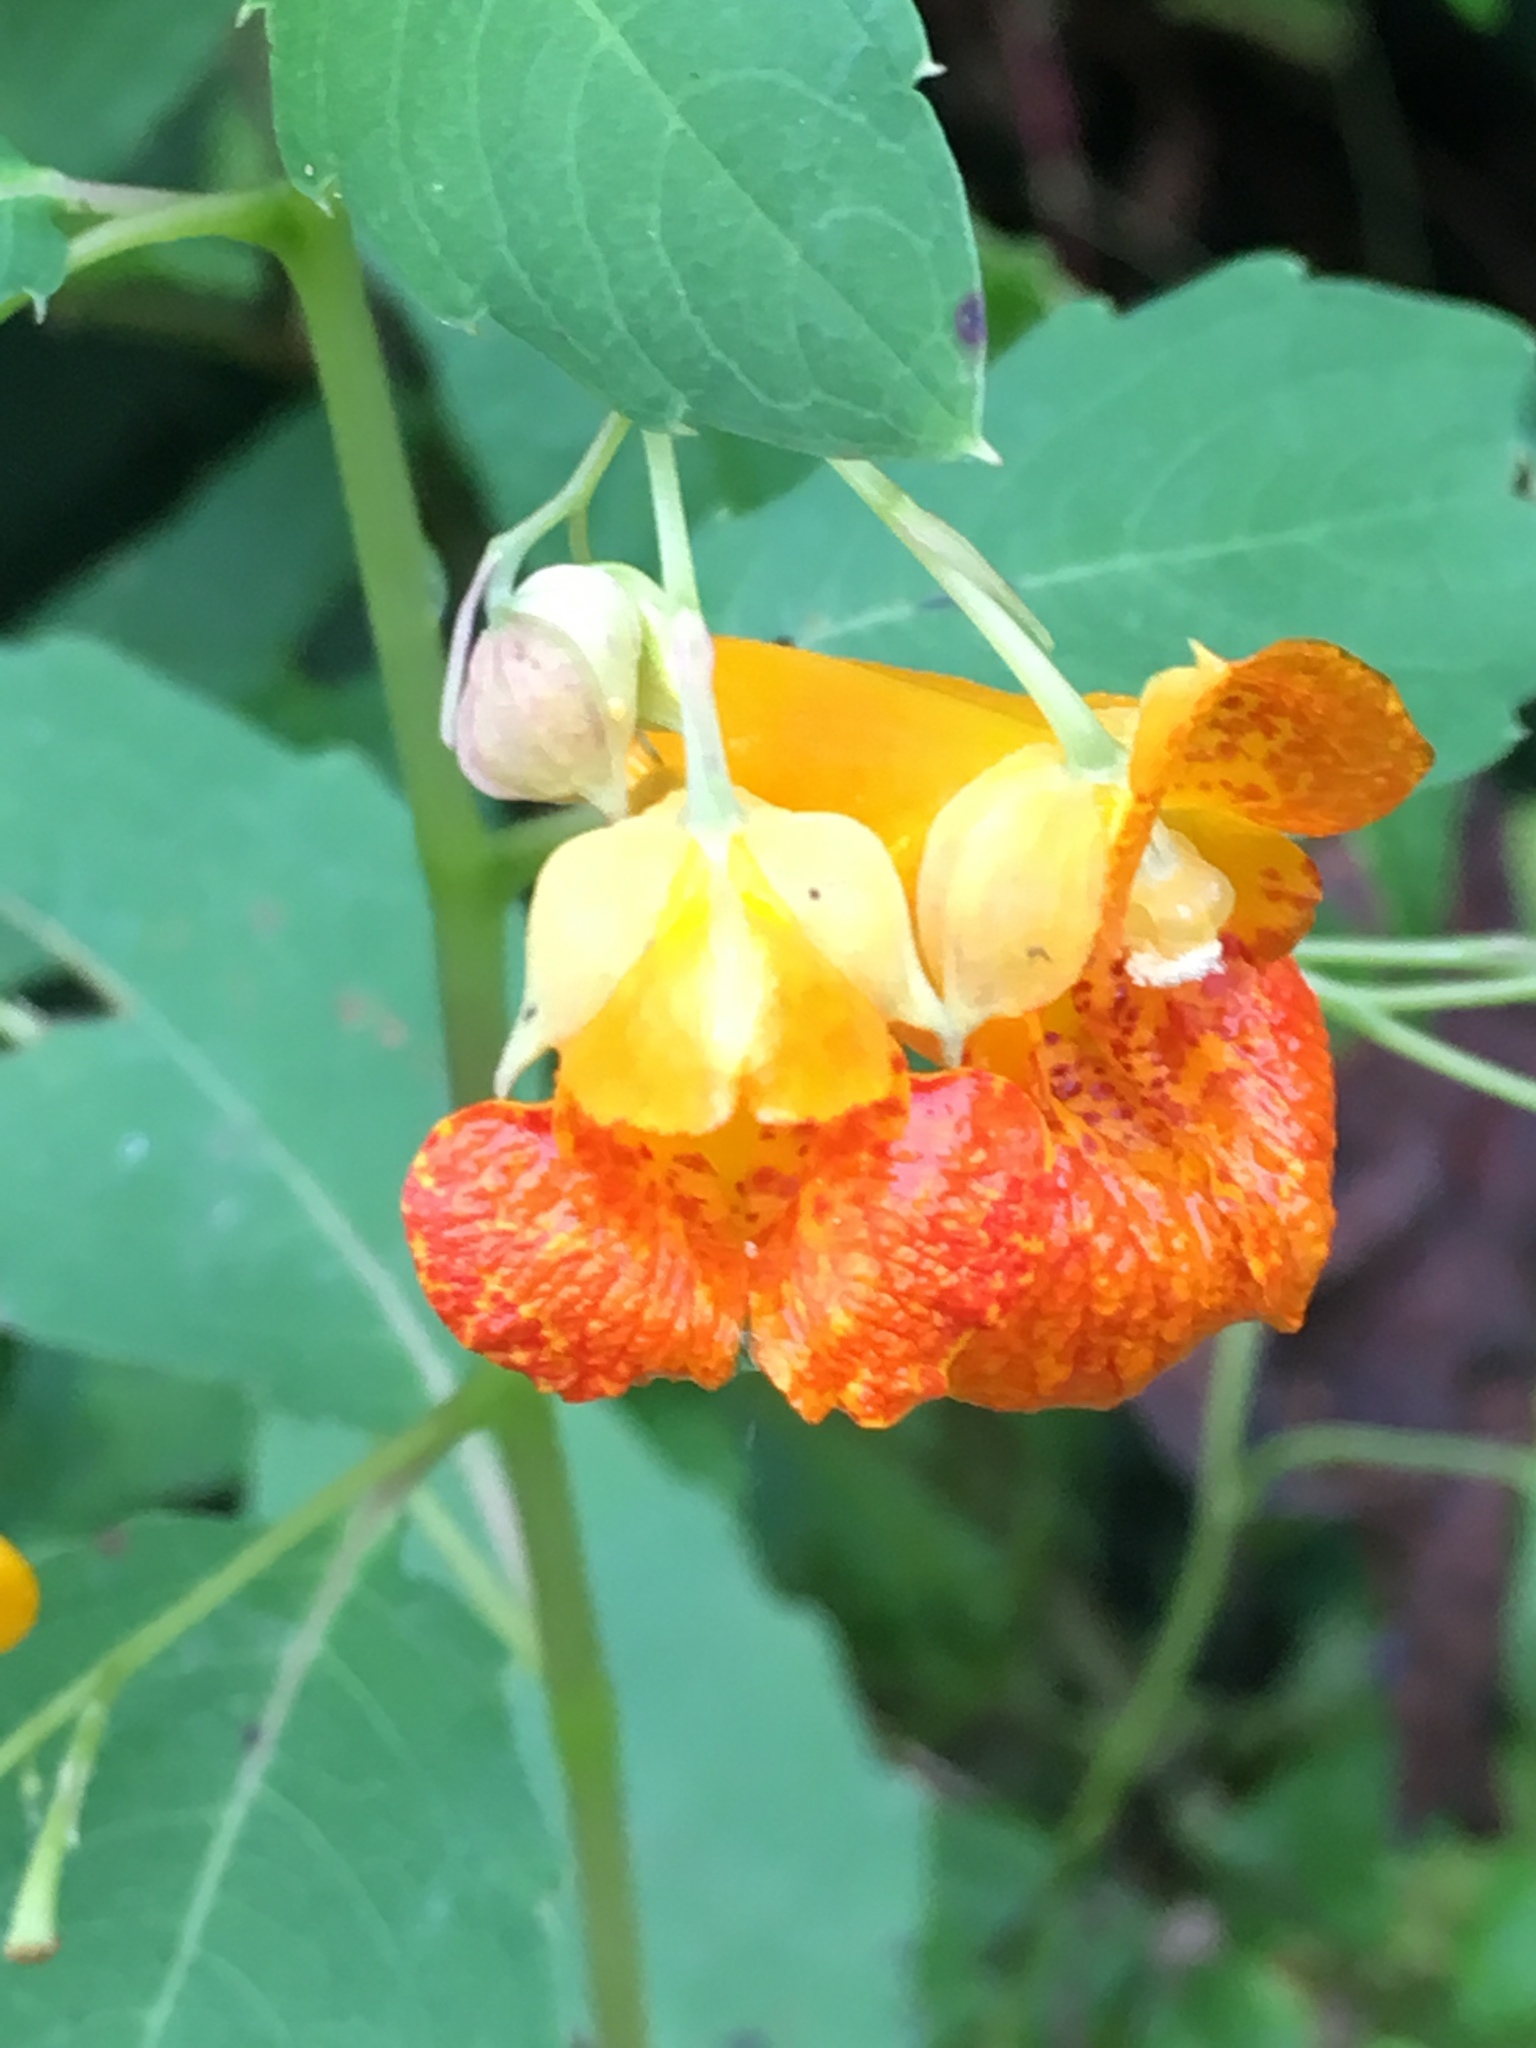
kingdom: Plantae
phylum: Tracheophyta
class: Magnoliopsida
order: Ericales
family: Balsaminaceae
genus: Impatiens
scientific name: Impatiens capensis
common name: Orange balsam
